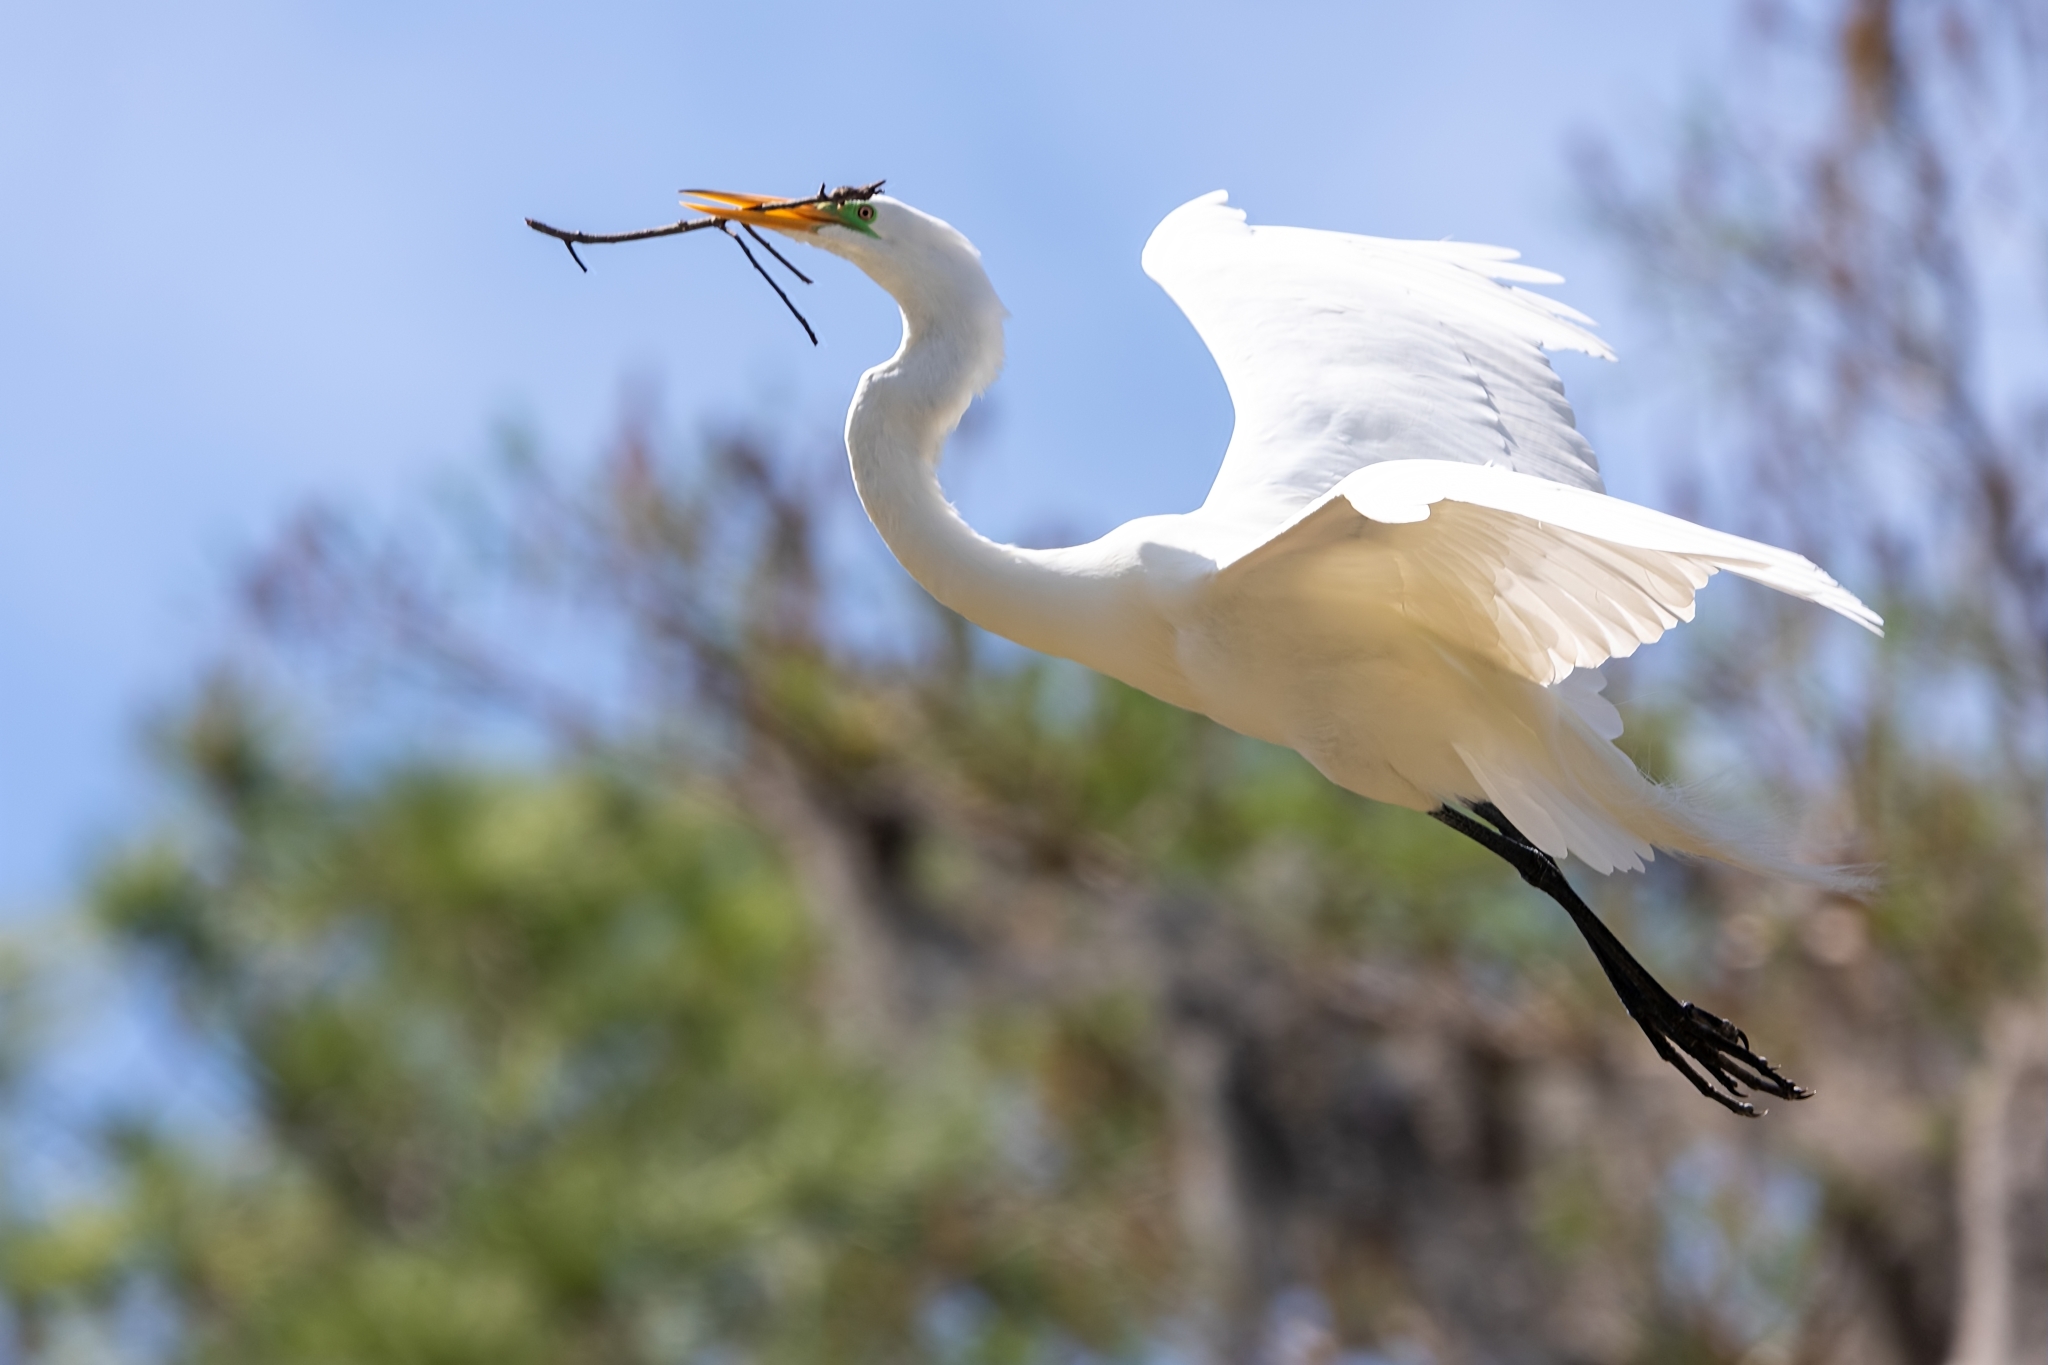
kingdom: Animalia
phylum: Chordata
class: Aves
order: Pelecaniformes
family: Ardeidae
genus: Ardea
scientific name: Ardea alba
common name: Great egret
